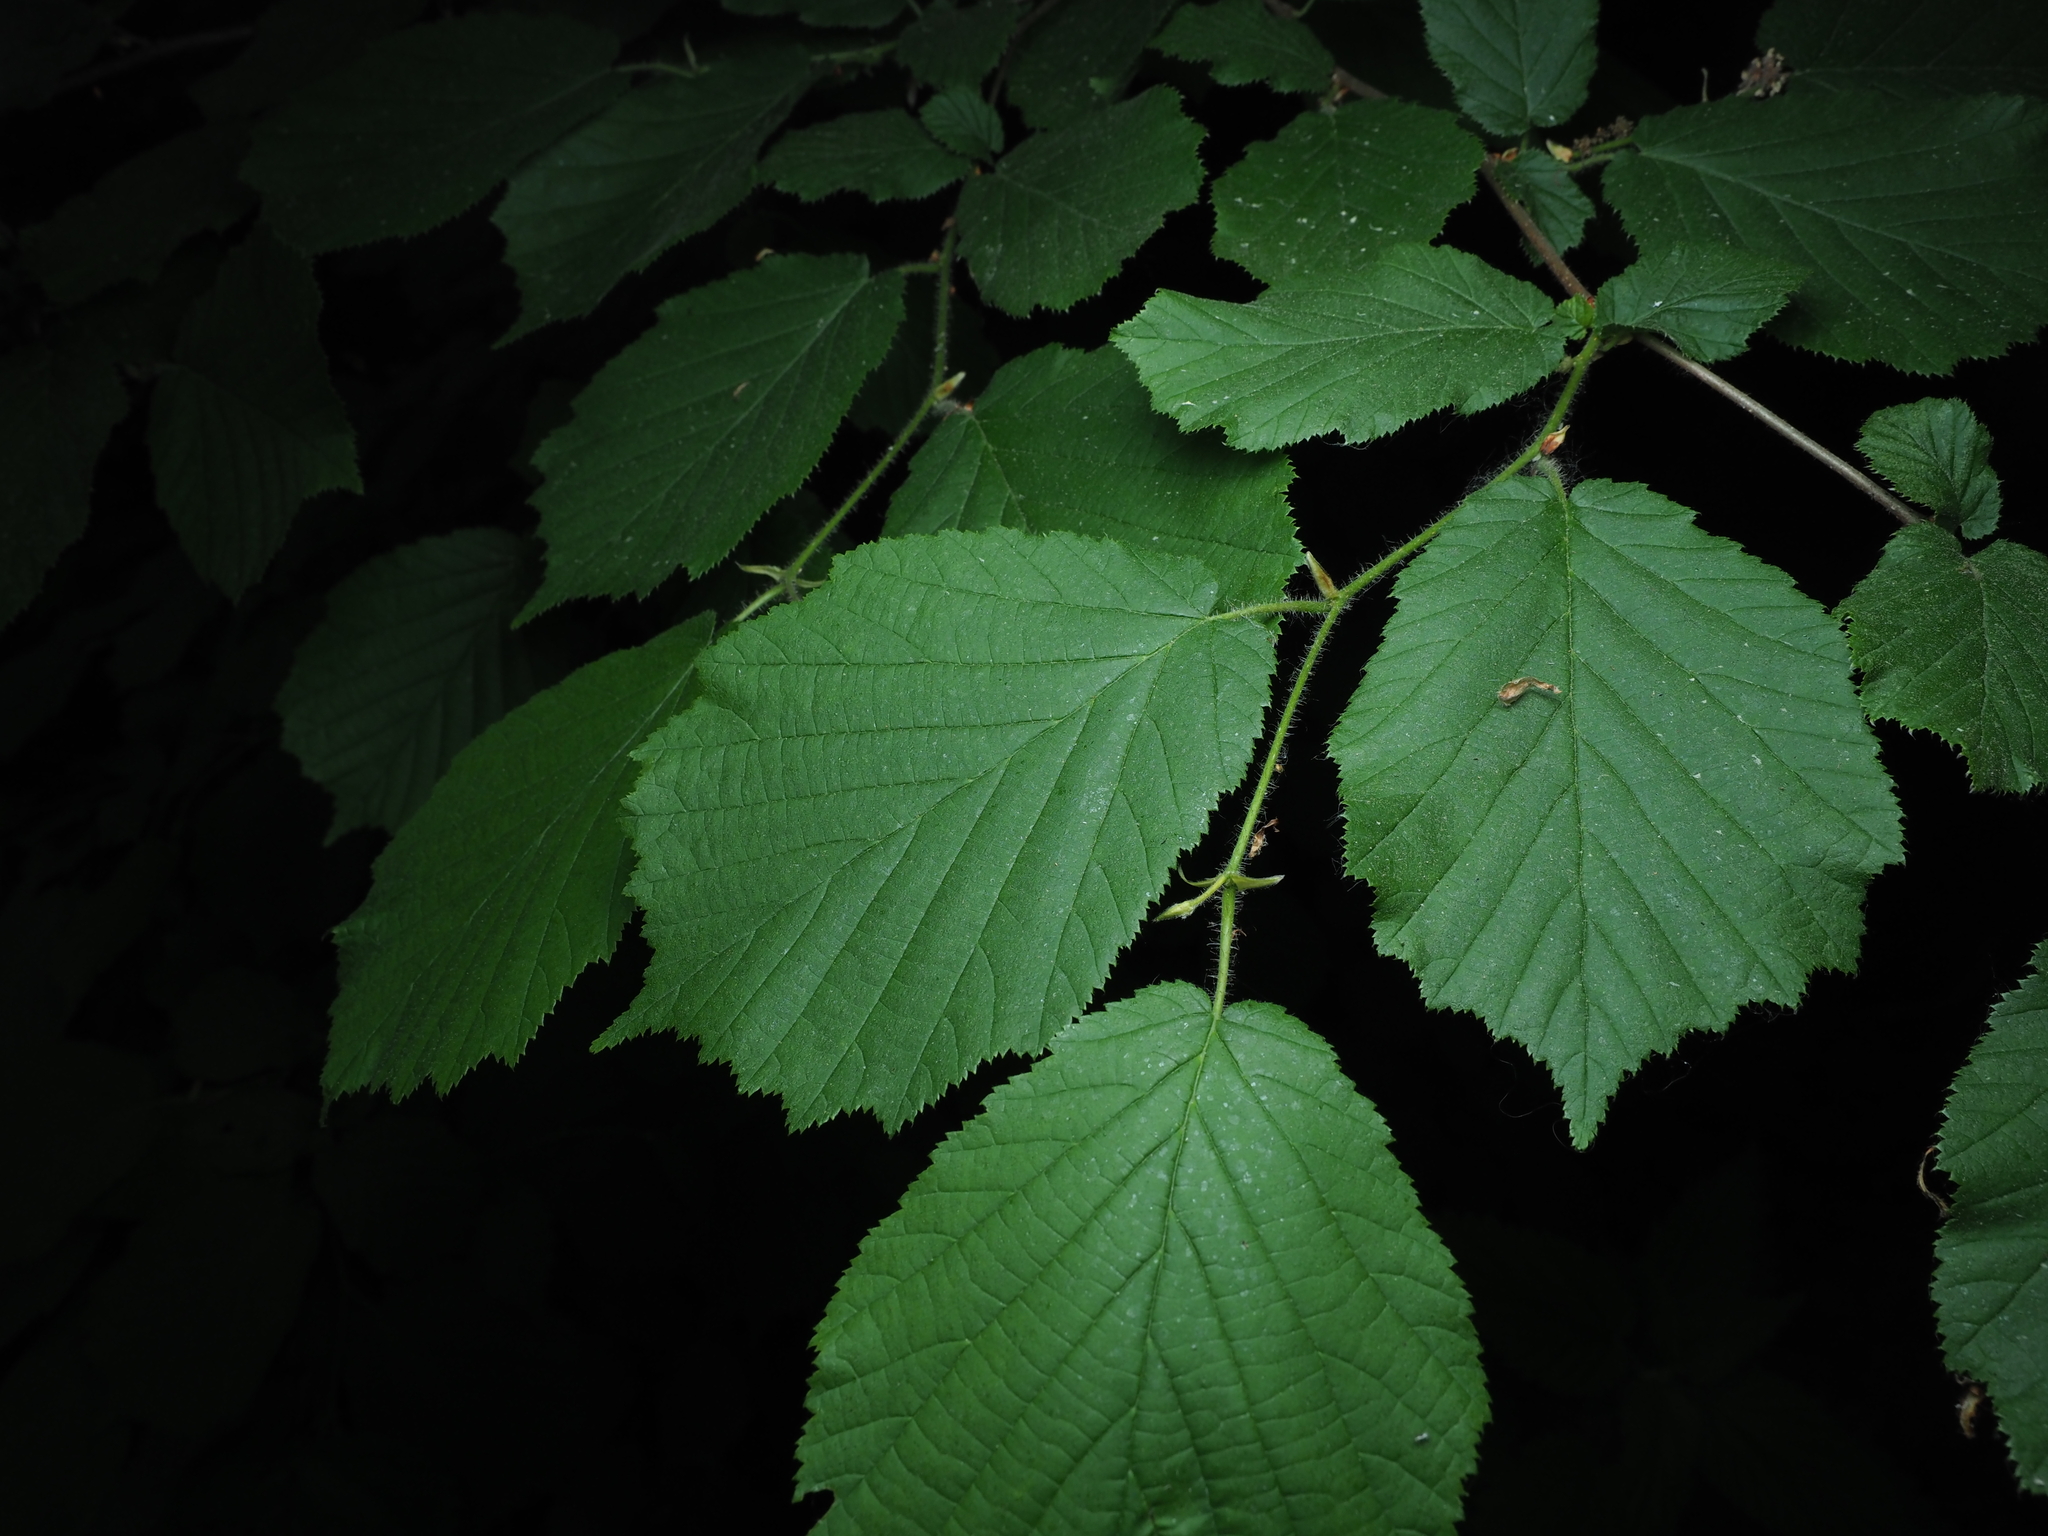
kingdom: Plantae
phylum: Tracheophyta
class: Magnoliopsida
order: Fagales
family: Betulaceae
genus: Corylus
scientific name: Corylus avellana
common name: European hazel
